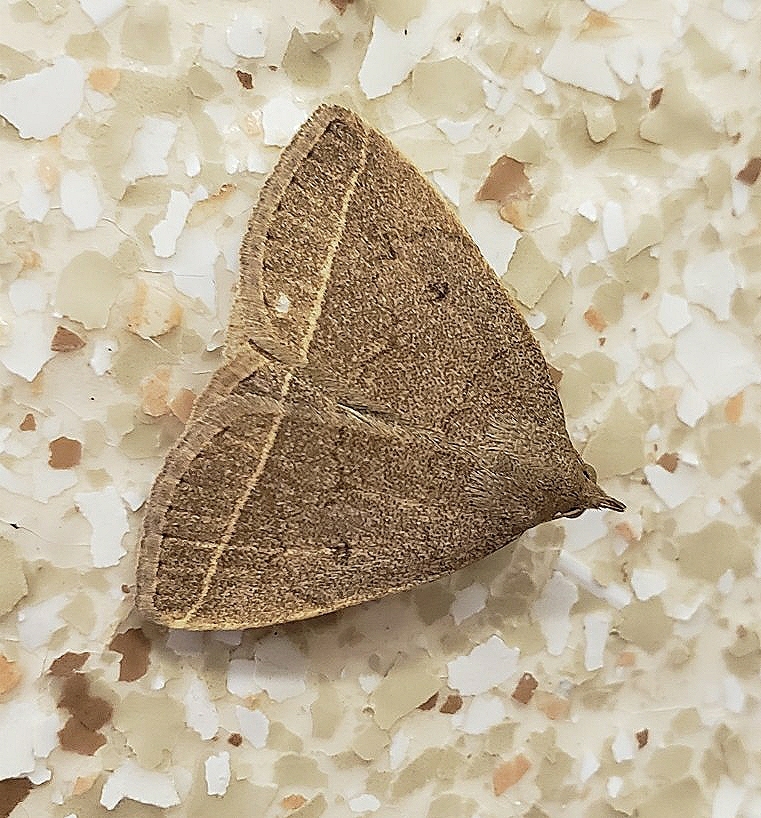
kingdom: Animalia
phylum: Arthropoda
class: Insecta
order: Lepidoptera
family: Erebidae
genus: Zanclognatha
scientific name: Zanclognatha marcidilinea
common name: Yellowish fan-foot
